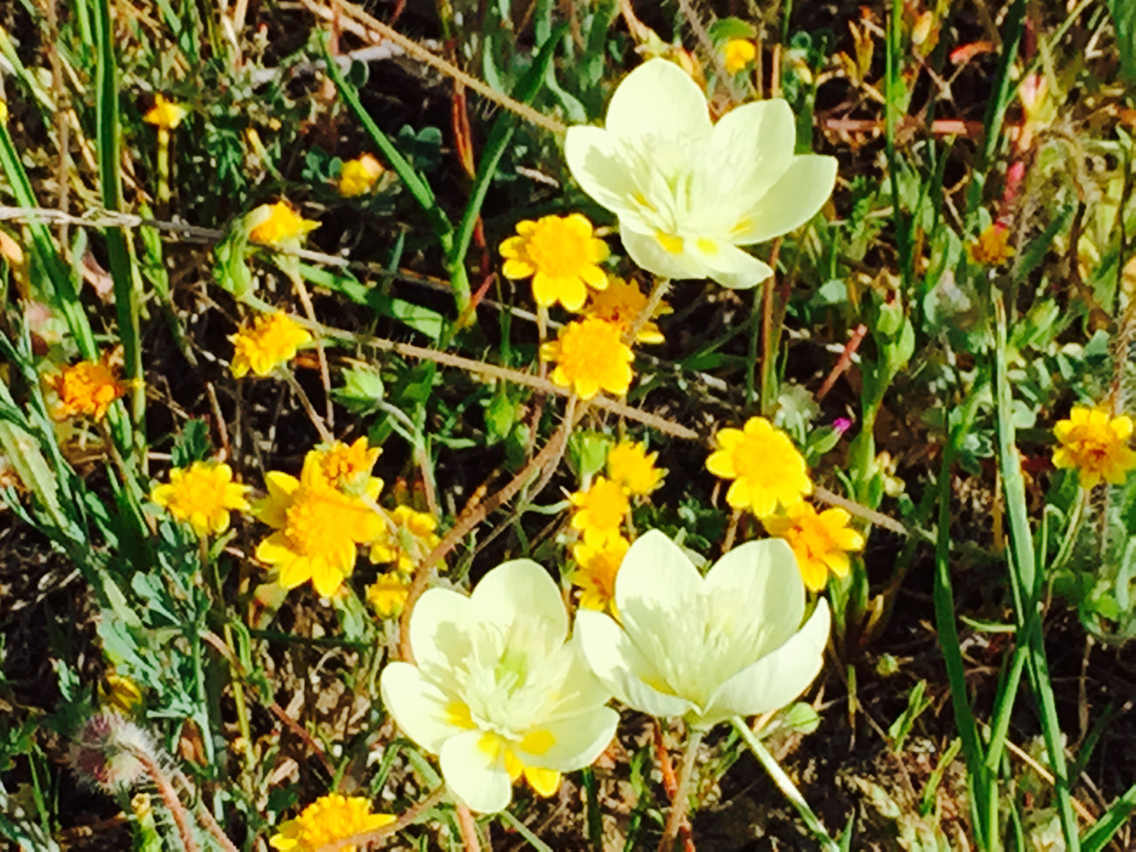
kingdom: Plantae
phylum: Tracheophyta
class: Magnoliopsida
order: Ranunculales
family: Papaveraceae
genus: Platystemon
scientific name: Platystemon californicus
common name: Cream-cups
